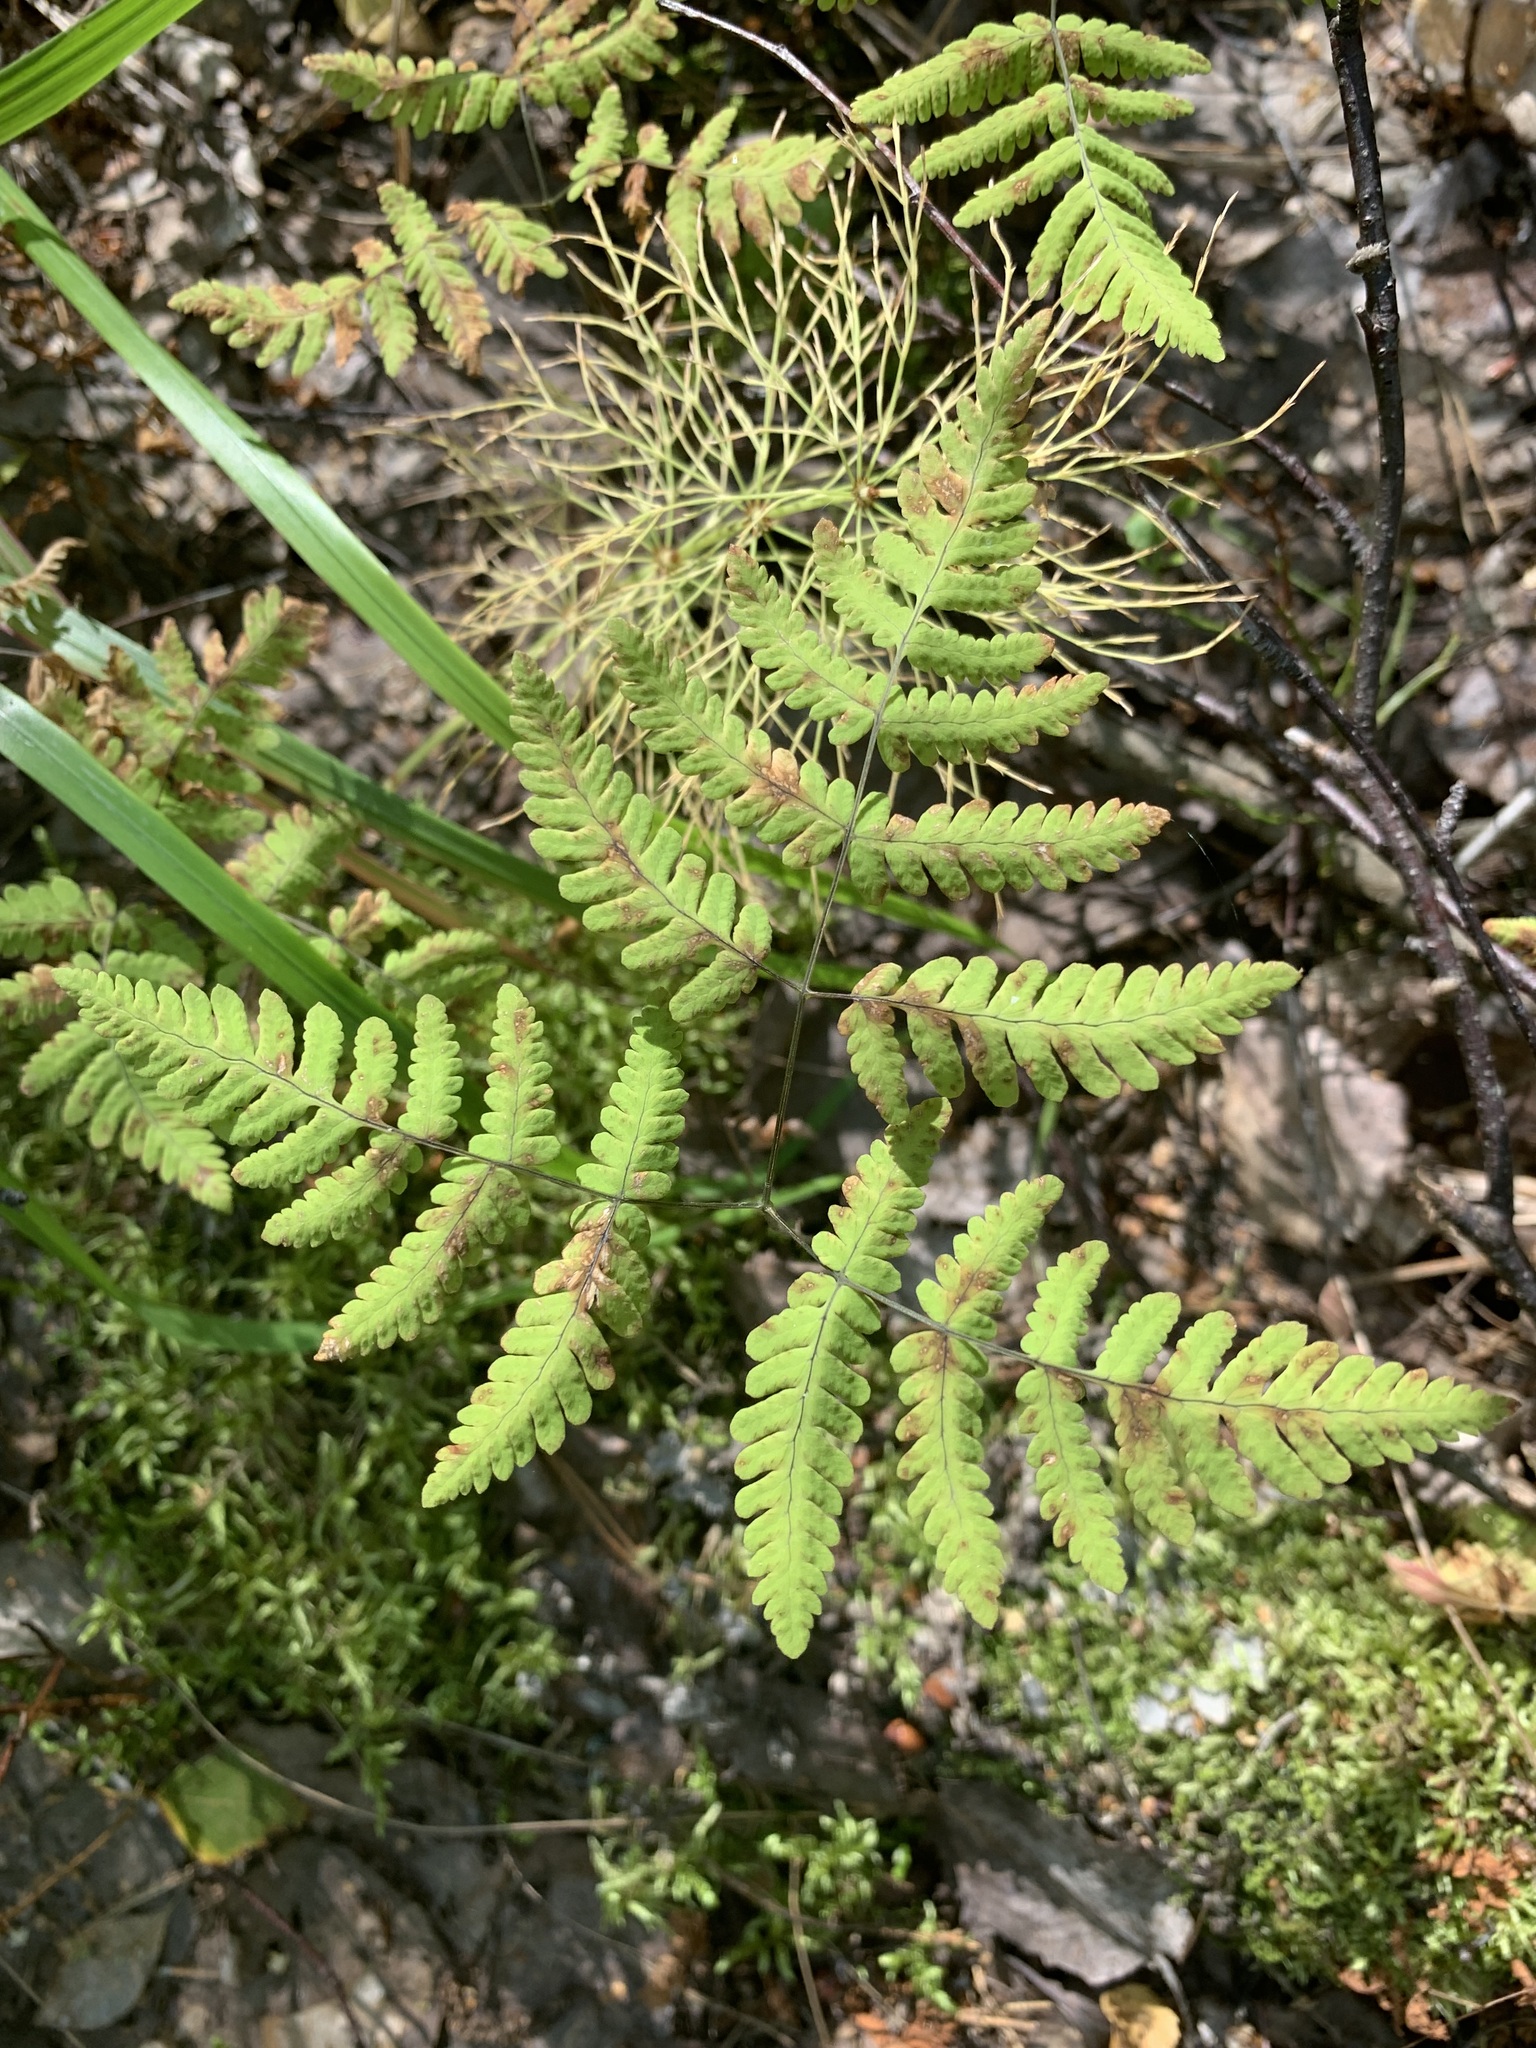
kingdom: Plantae
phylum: Tracheophyta
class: Polypodiopsida
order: Polypodiales
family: Cystopteridaceae
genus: Gymnocarpium
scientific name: Gymnocarpium dryopteris
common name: Oak fern
